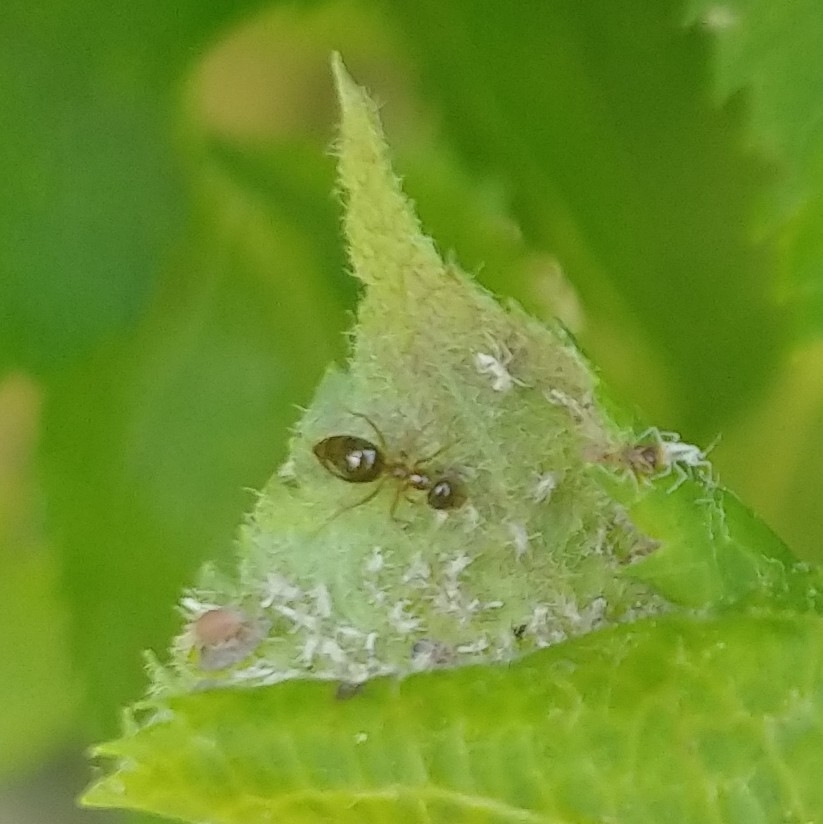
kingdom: Animalia
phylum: Arthropoda
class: Insecta
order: Hymenoptera
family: Formicidae
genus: Prenolepis
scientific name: Prenolepis imparis
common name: Small honey ant
